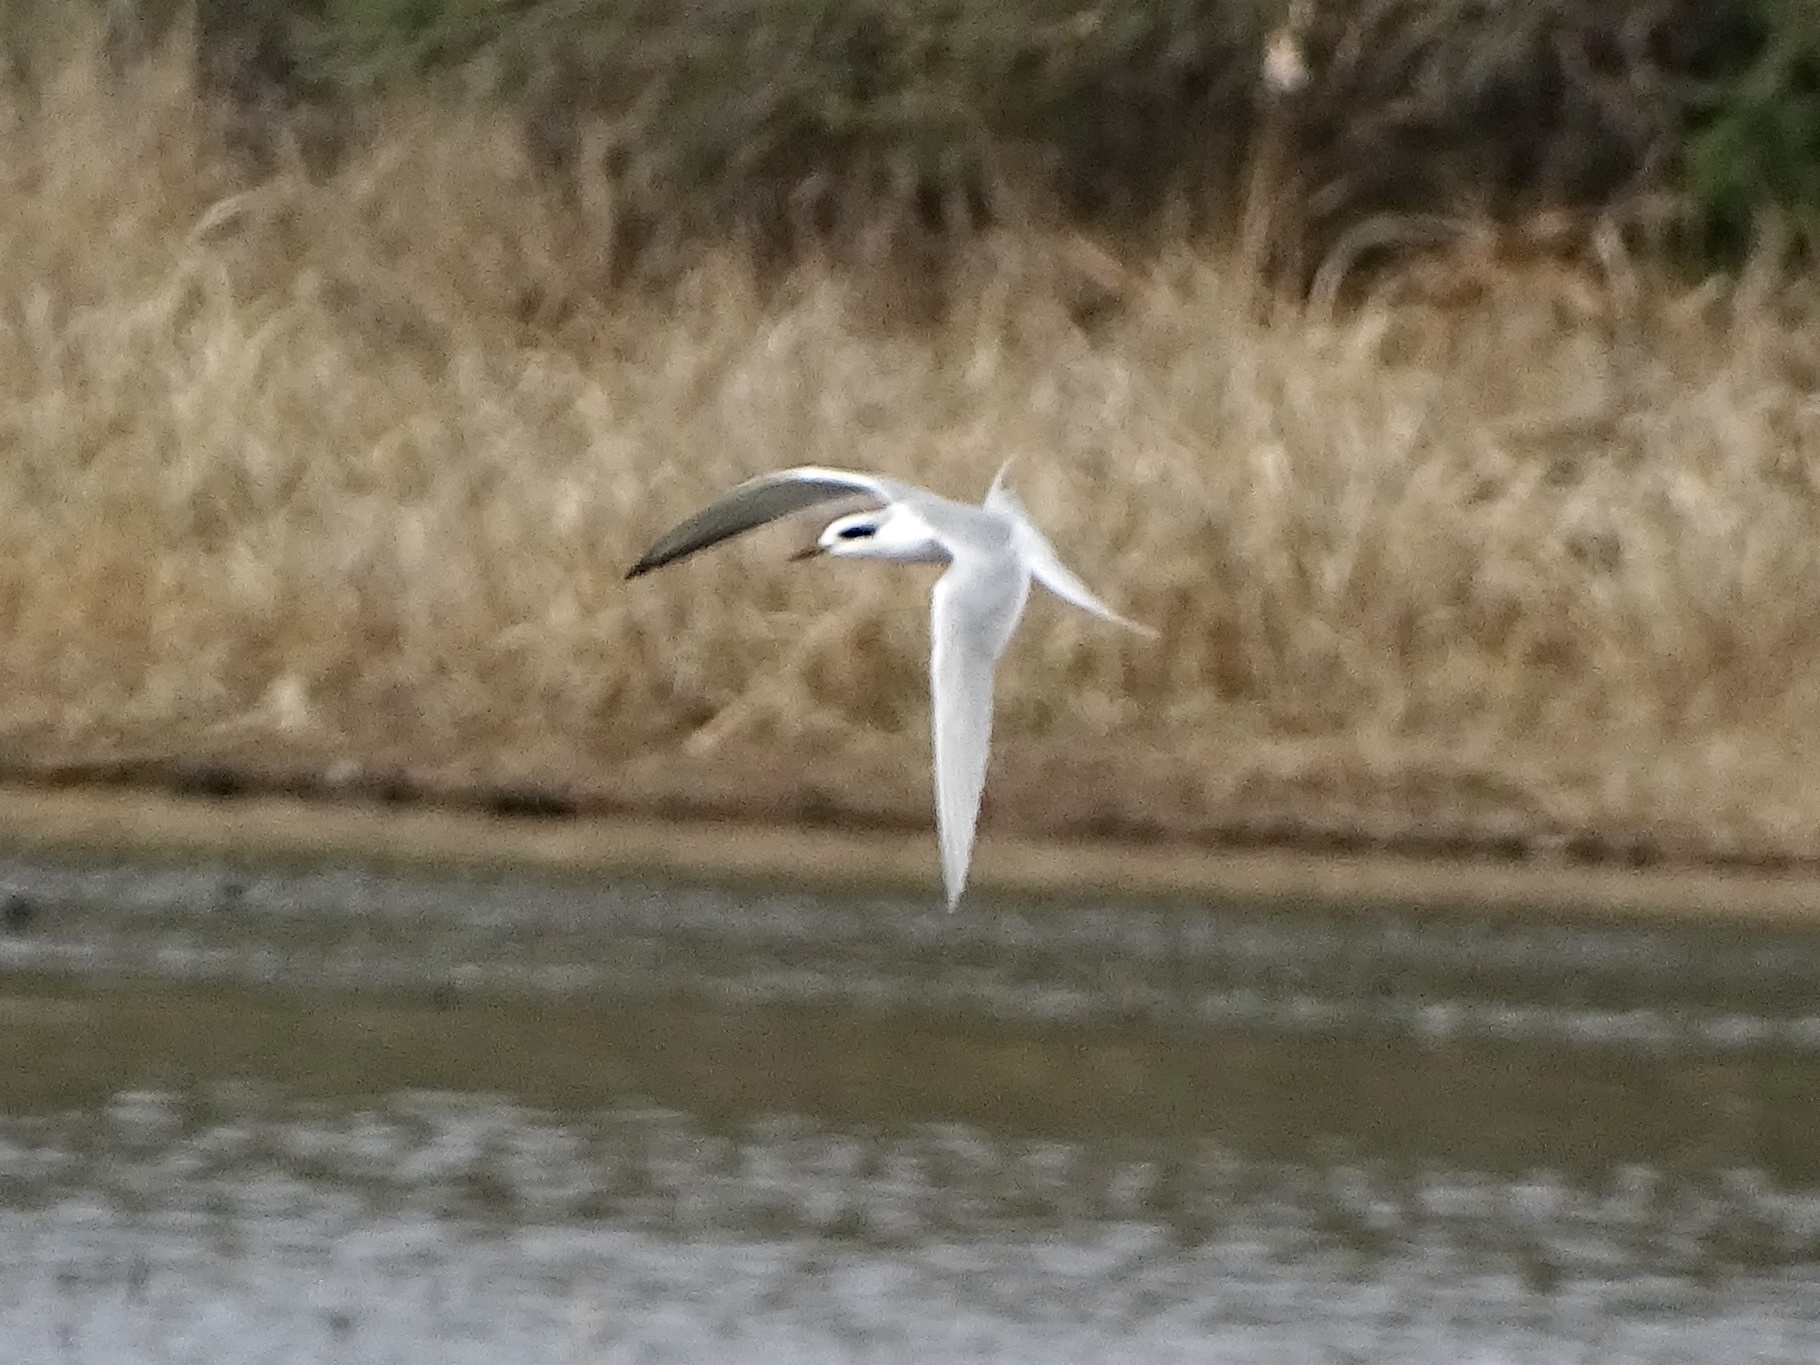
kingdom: Animalia
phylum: Chordata
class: Aves
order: Charadriiformes
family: Laridae
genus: Sterna
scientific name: Sterna forsteri
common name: Forster's tern
